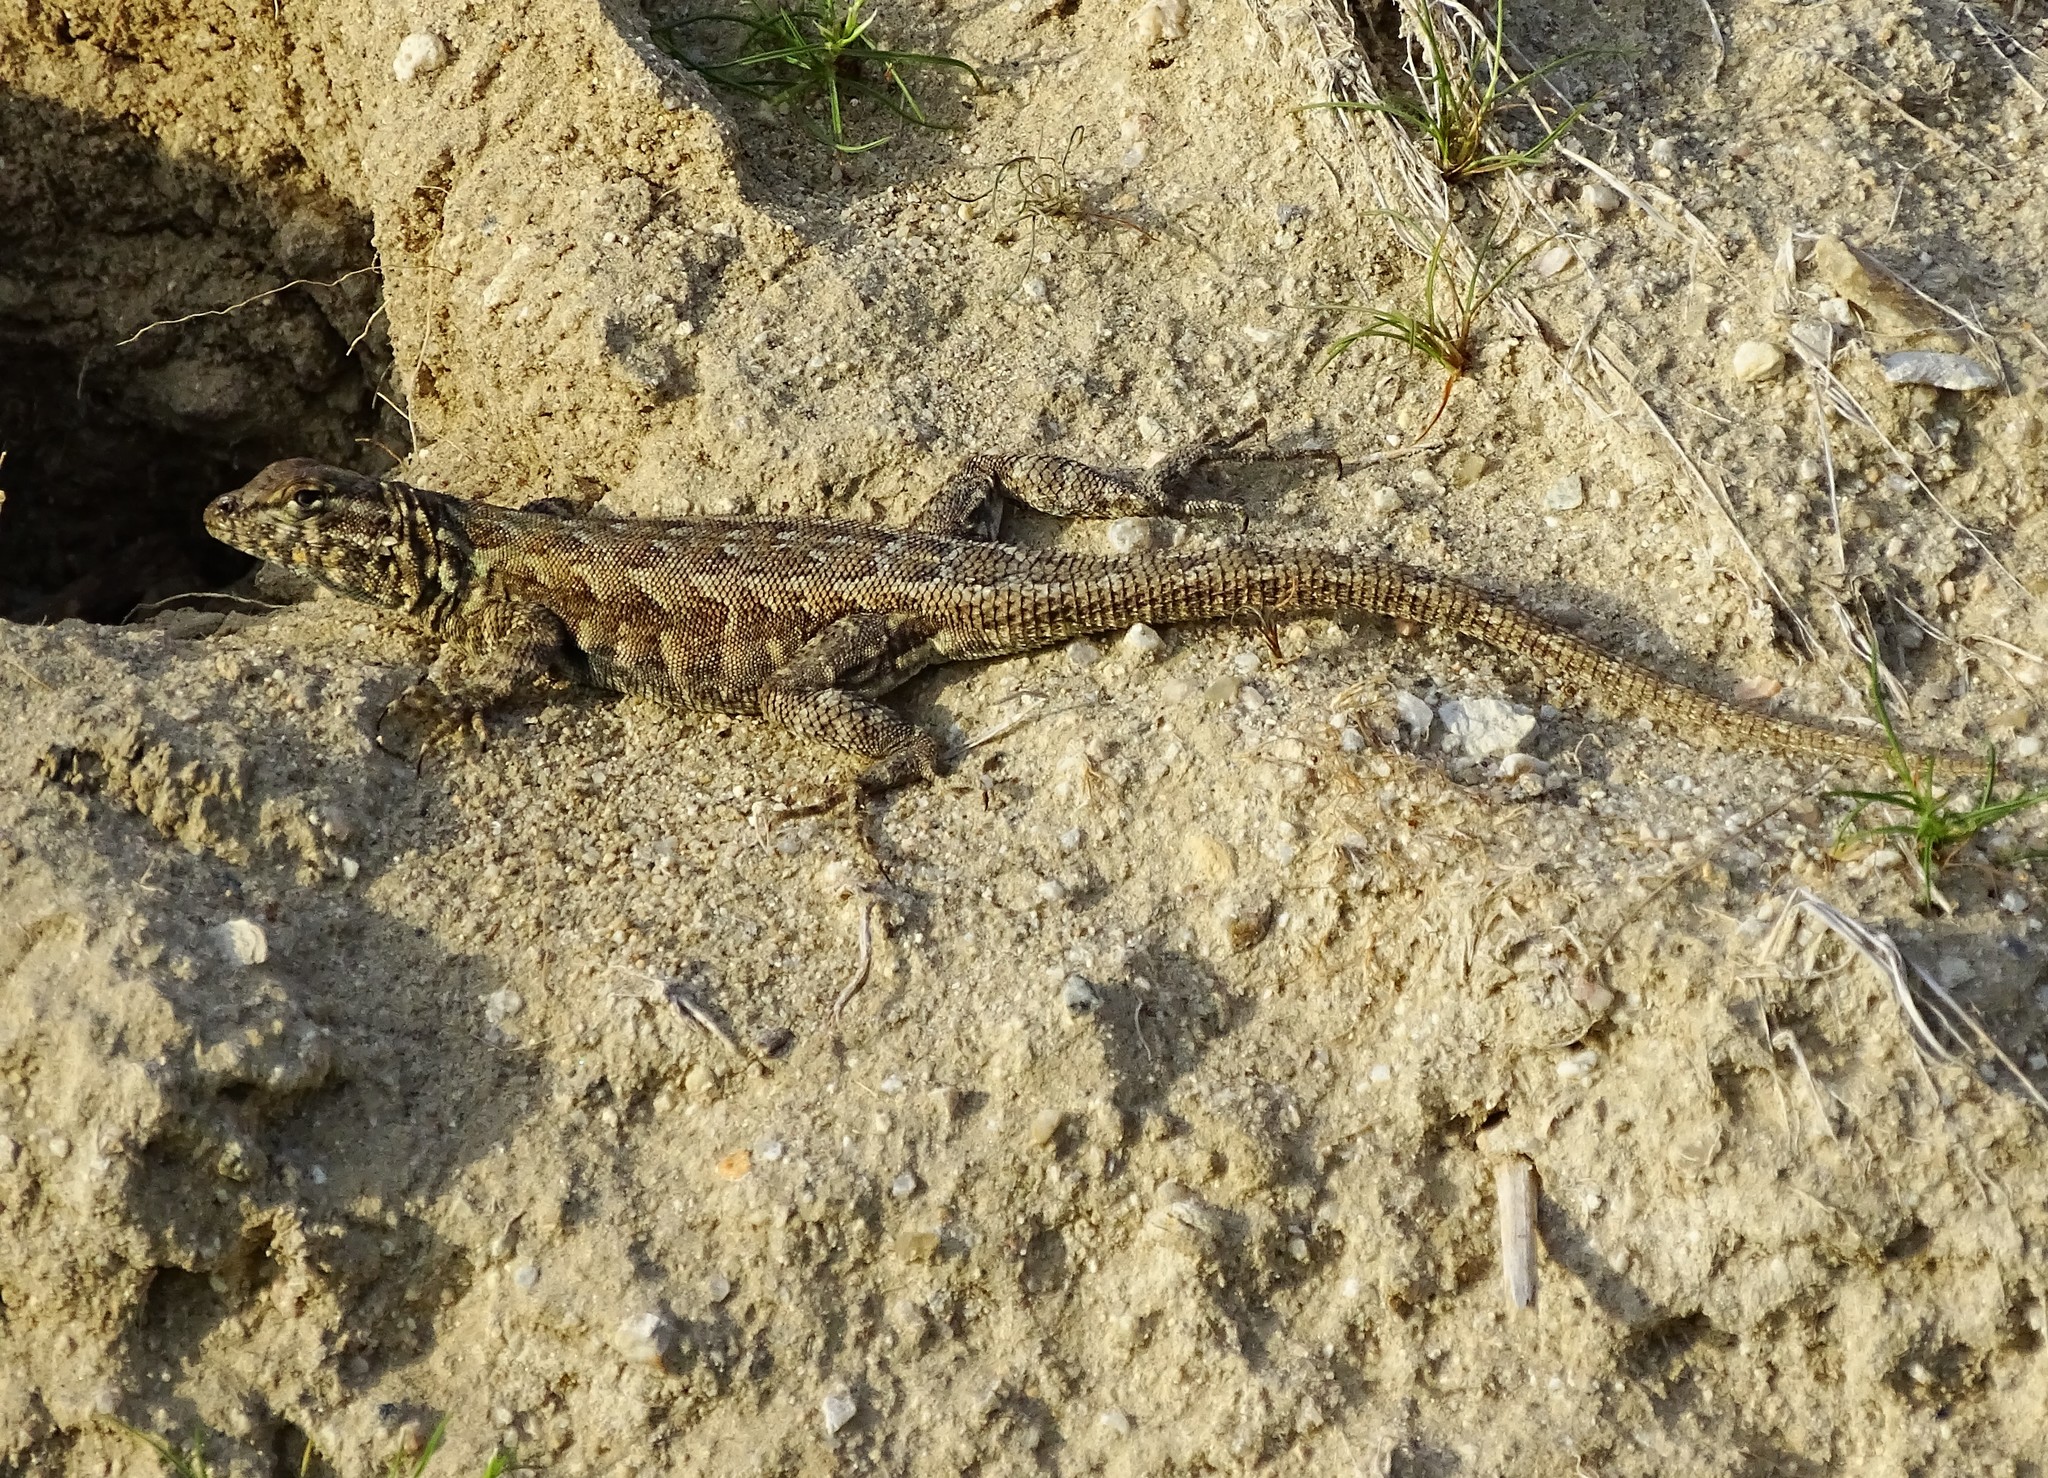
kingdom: Animalia
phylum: Chordata
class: Squamata
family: Phrynosomatidae
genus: Uta
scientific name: Uta stansburiana
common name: Side-blotched lizard
